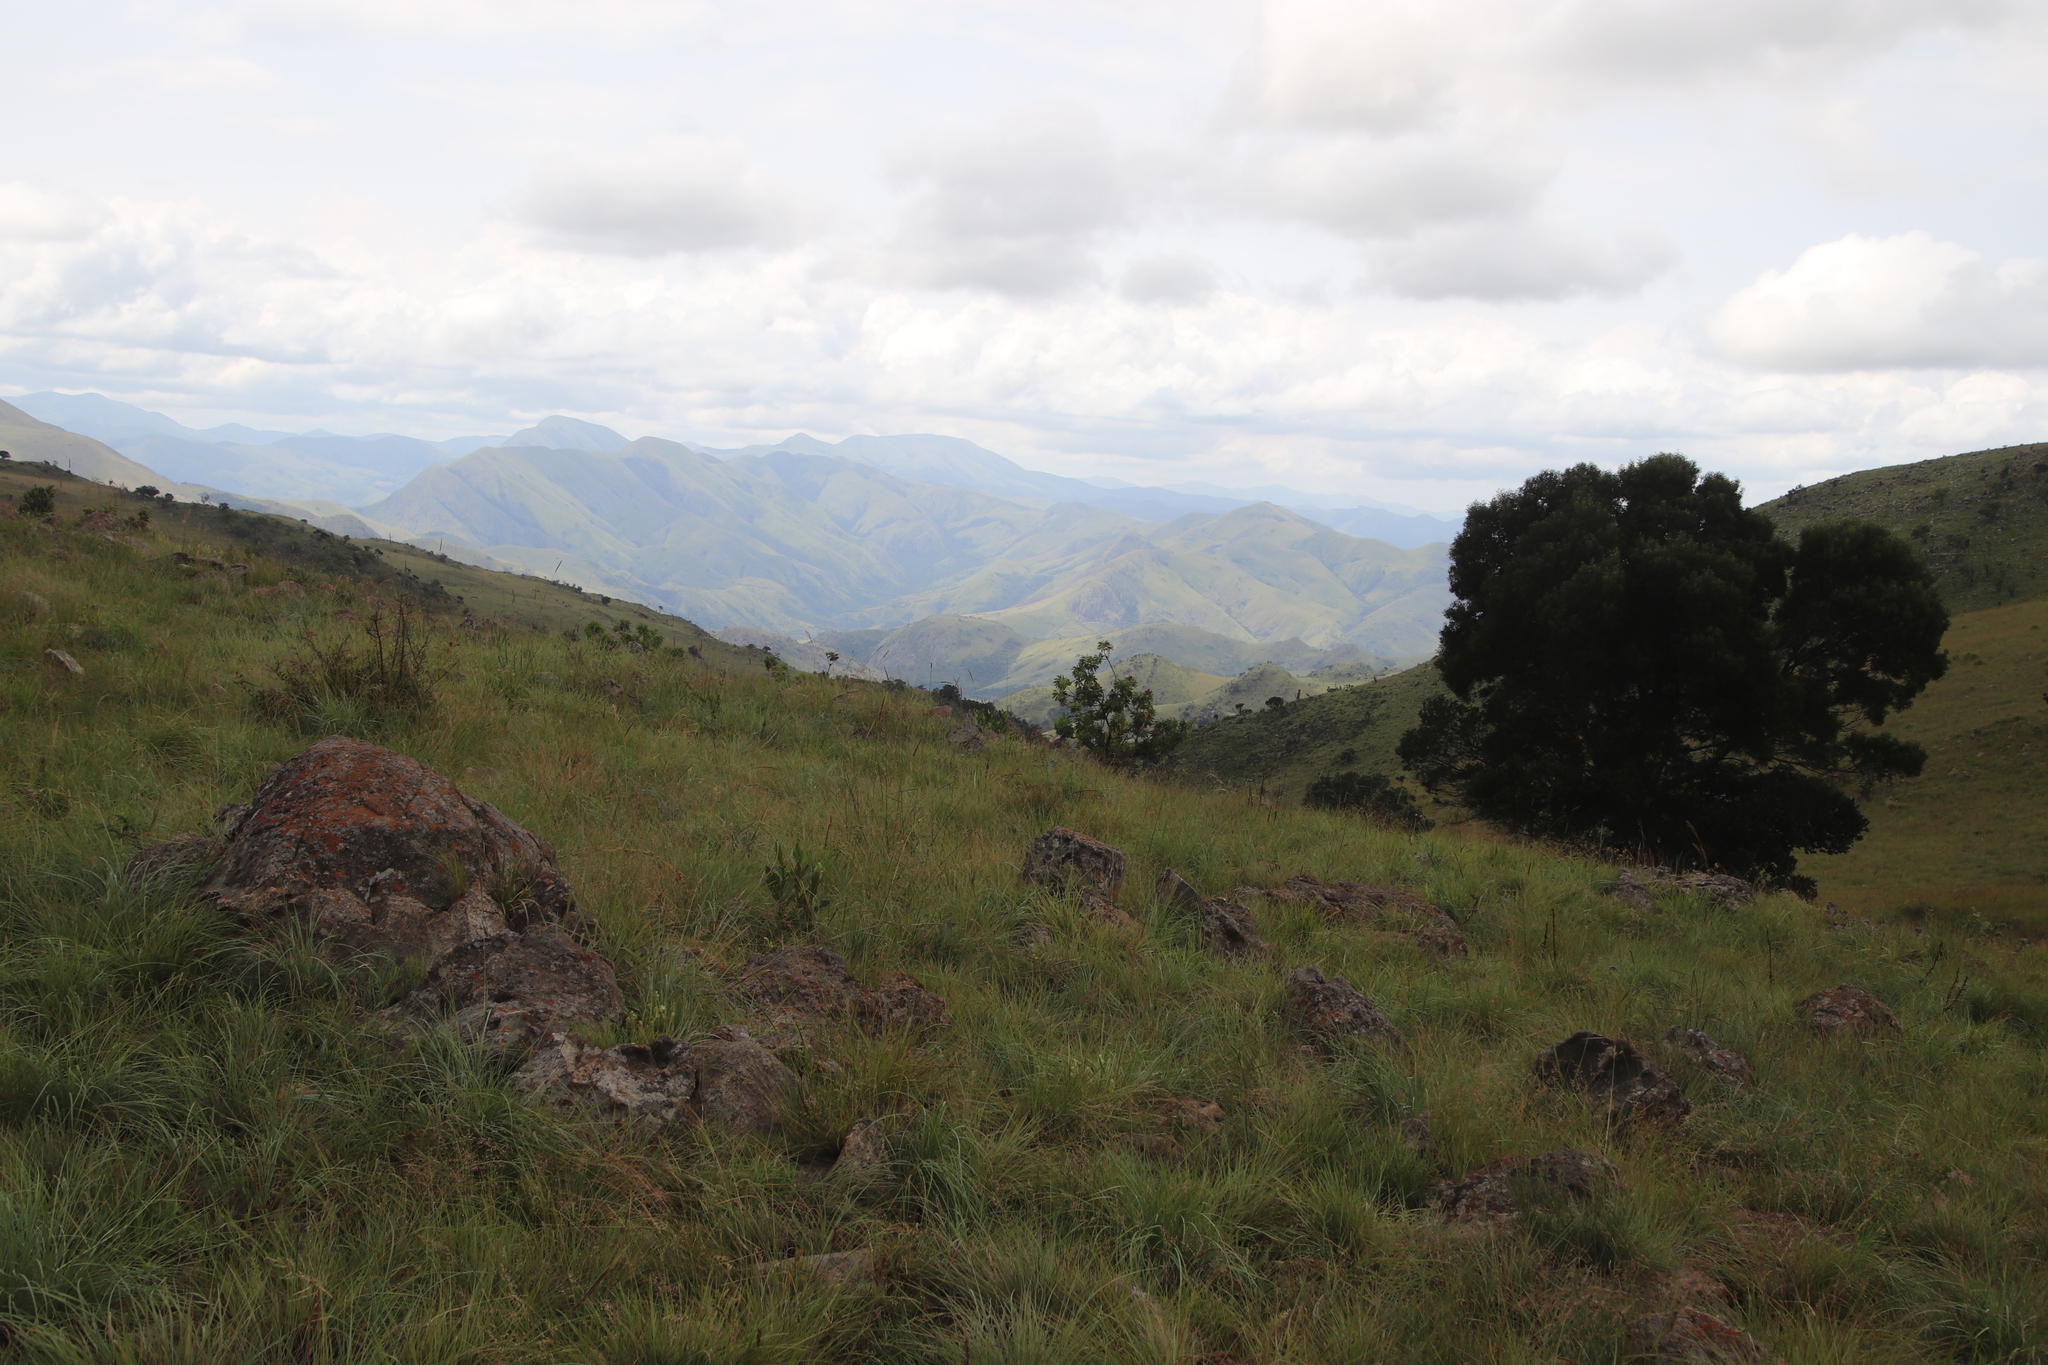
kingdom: Plantae
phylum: Tracheophyta
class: Magnoliopsida
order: Proteales
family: Proteaceae
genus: Protea
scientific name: Protea caffra
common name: Common sugarbush
